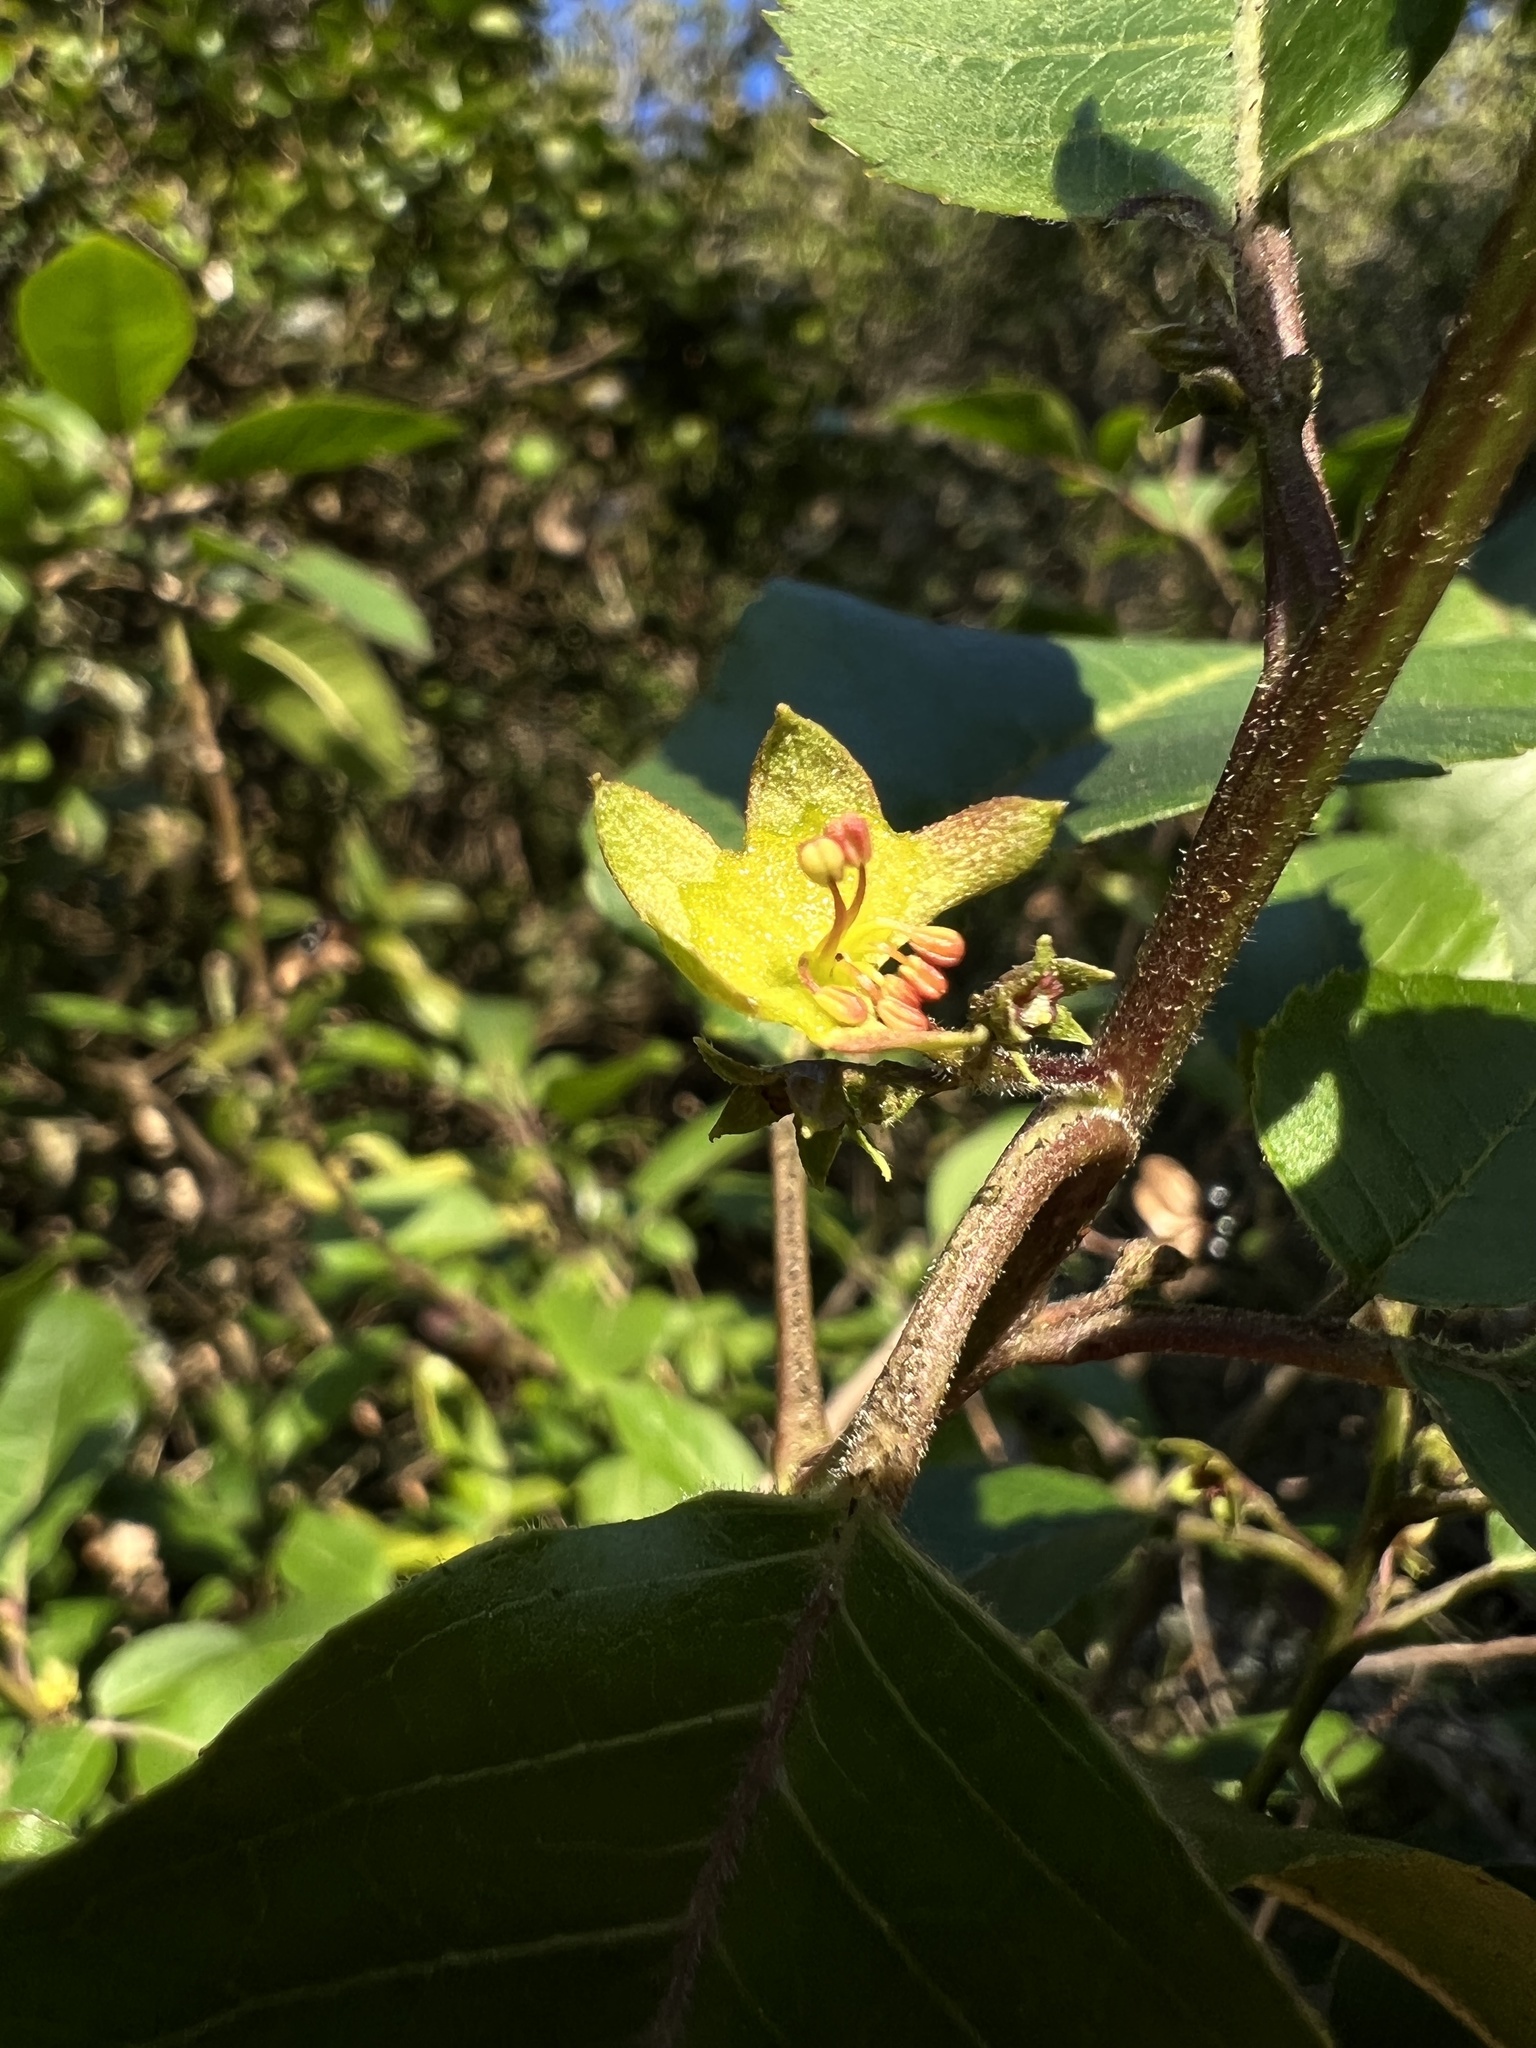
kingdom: Plantae
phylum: Tracheophyta
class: Magnoliopsida
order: Sapindales
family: Sapindaceae
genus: Llagunoa
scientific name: Llagunoa nitida
